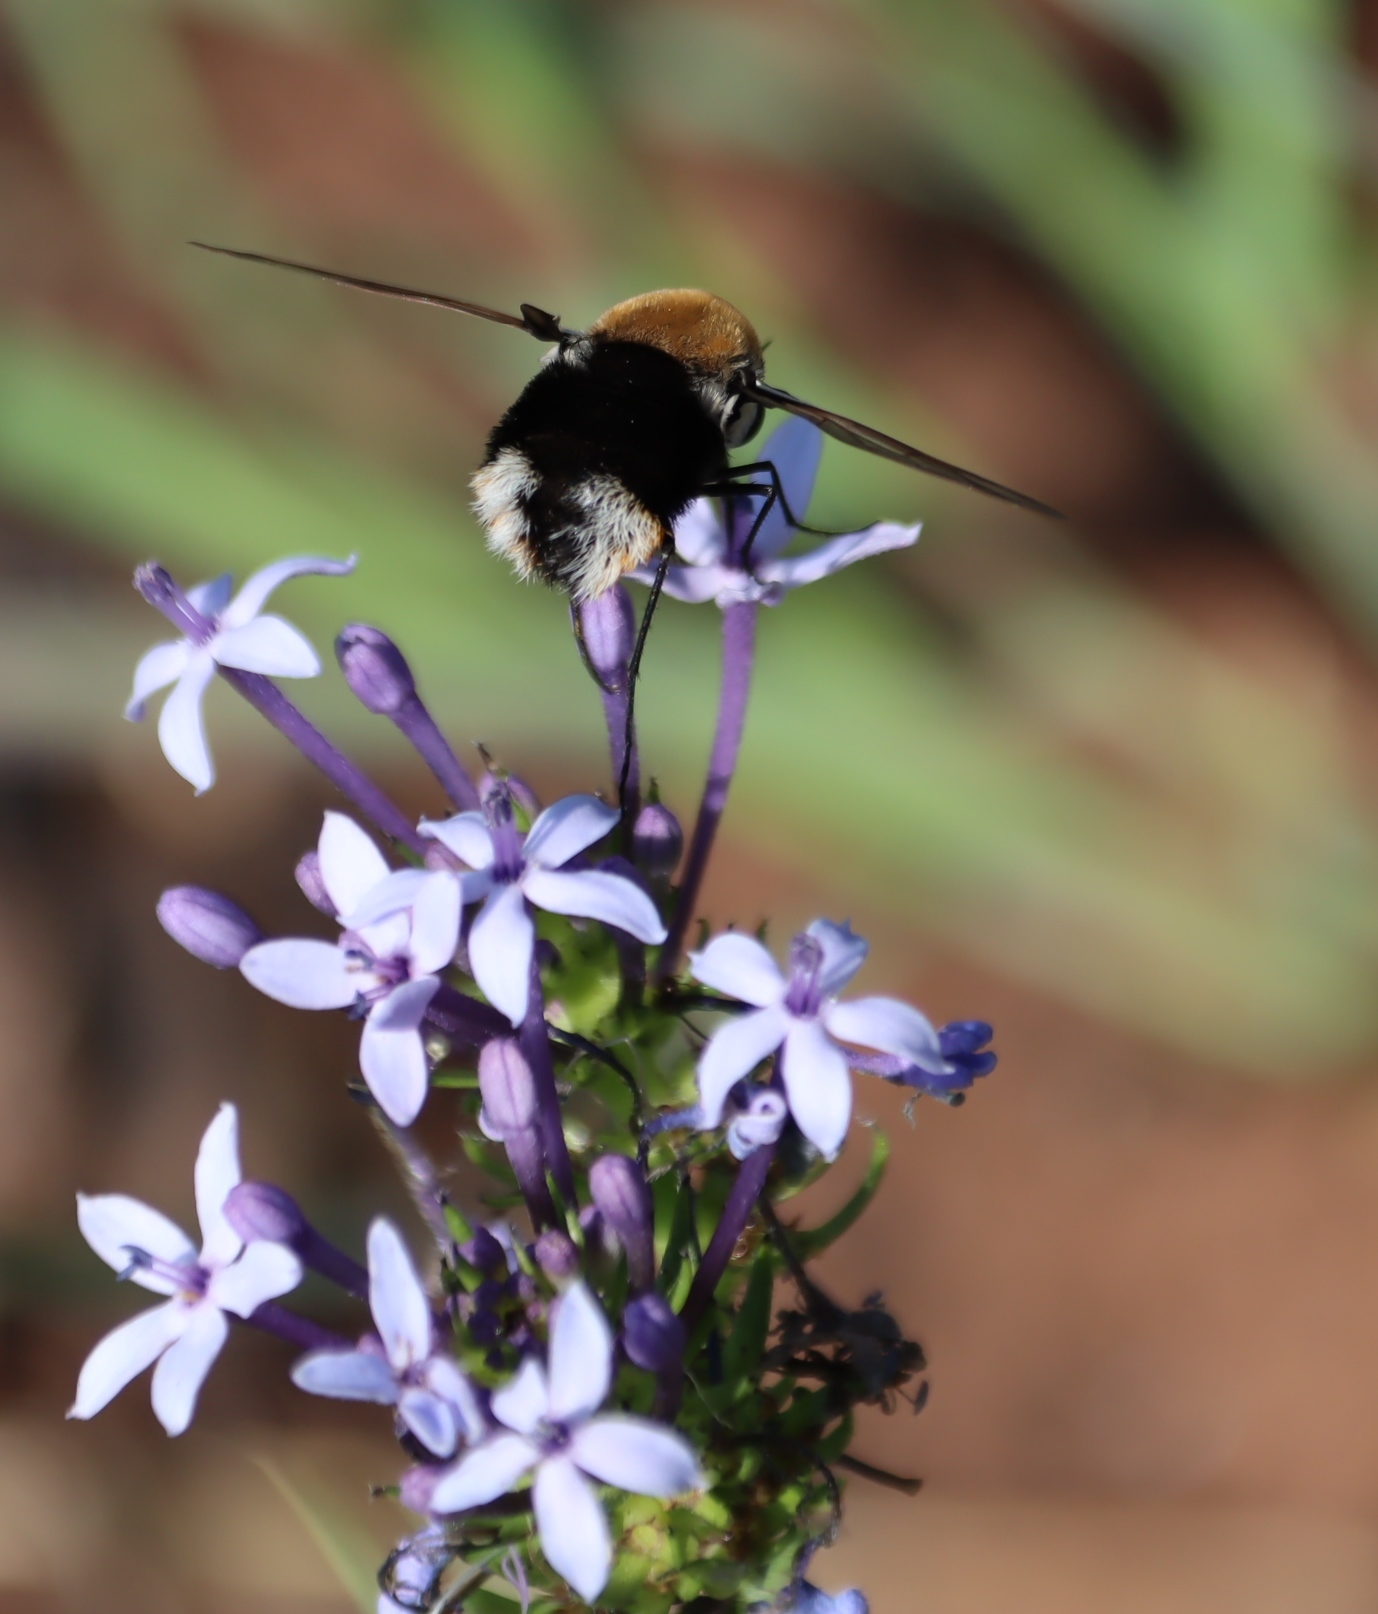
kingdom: Animalia
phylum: Arthropoda
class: Insecta
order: Diptera
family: Bombyliidae
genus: Bombomyia
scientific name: Bombomyia discoidea
